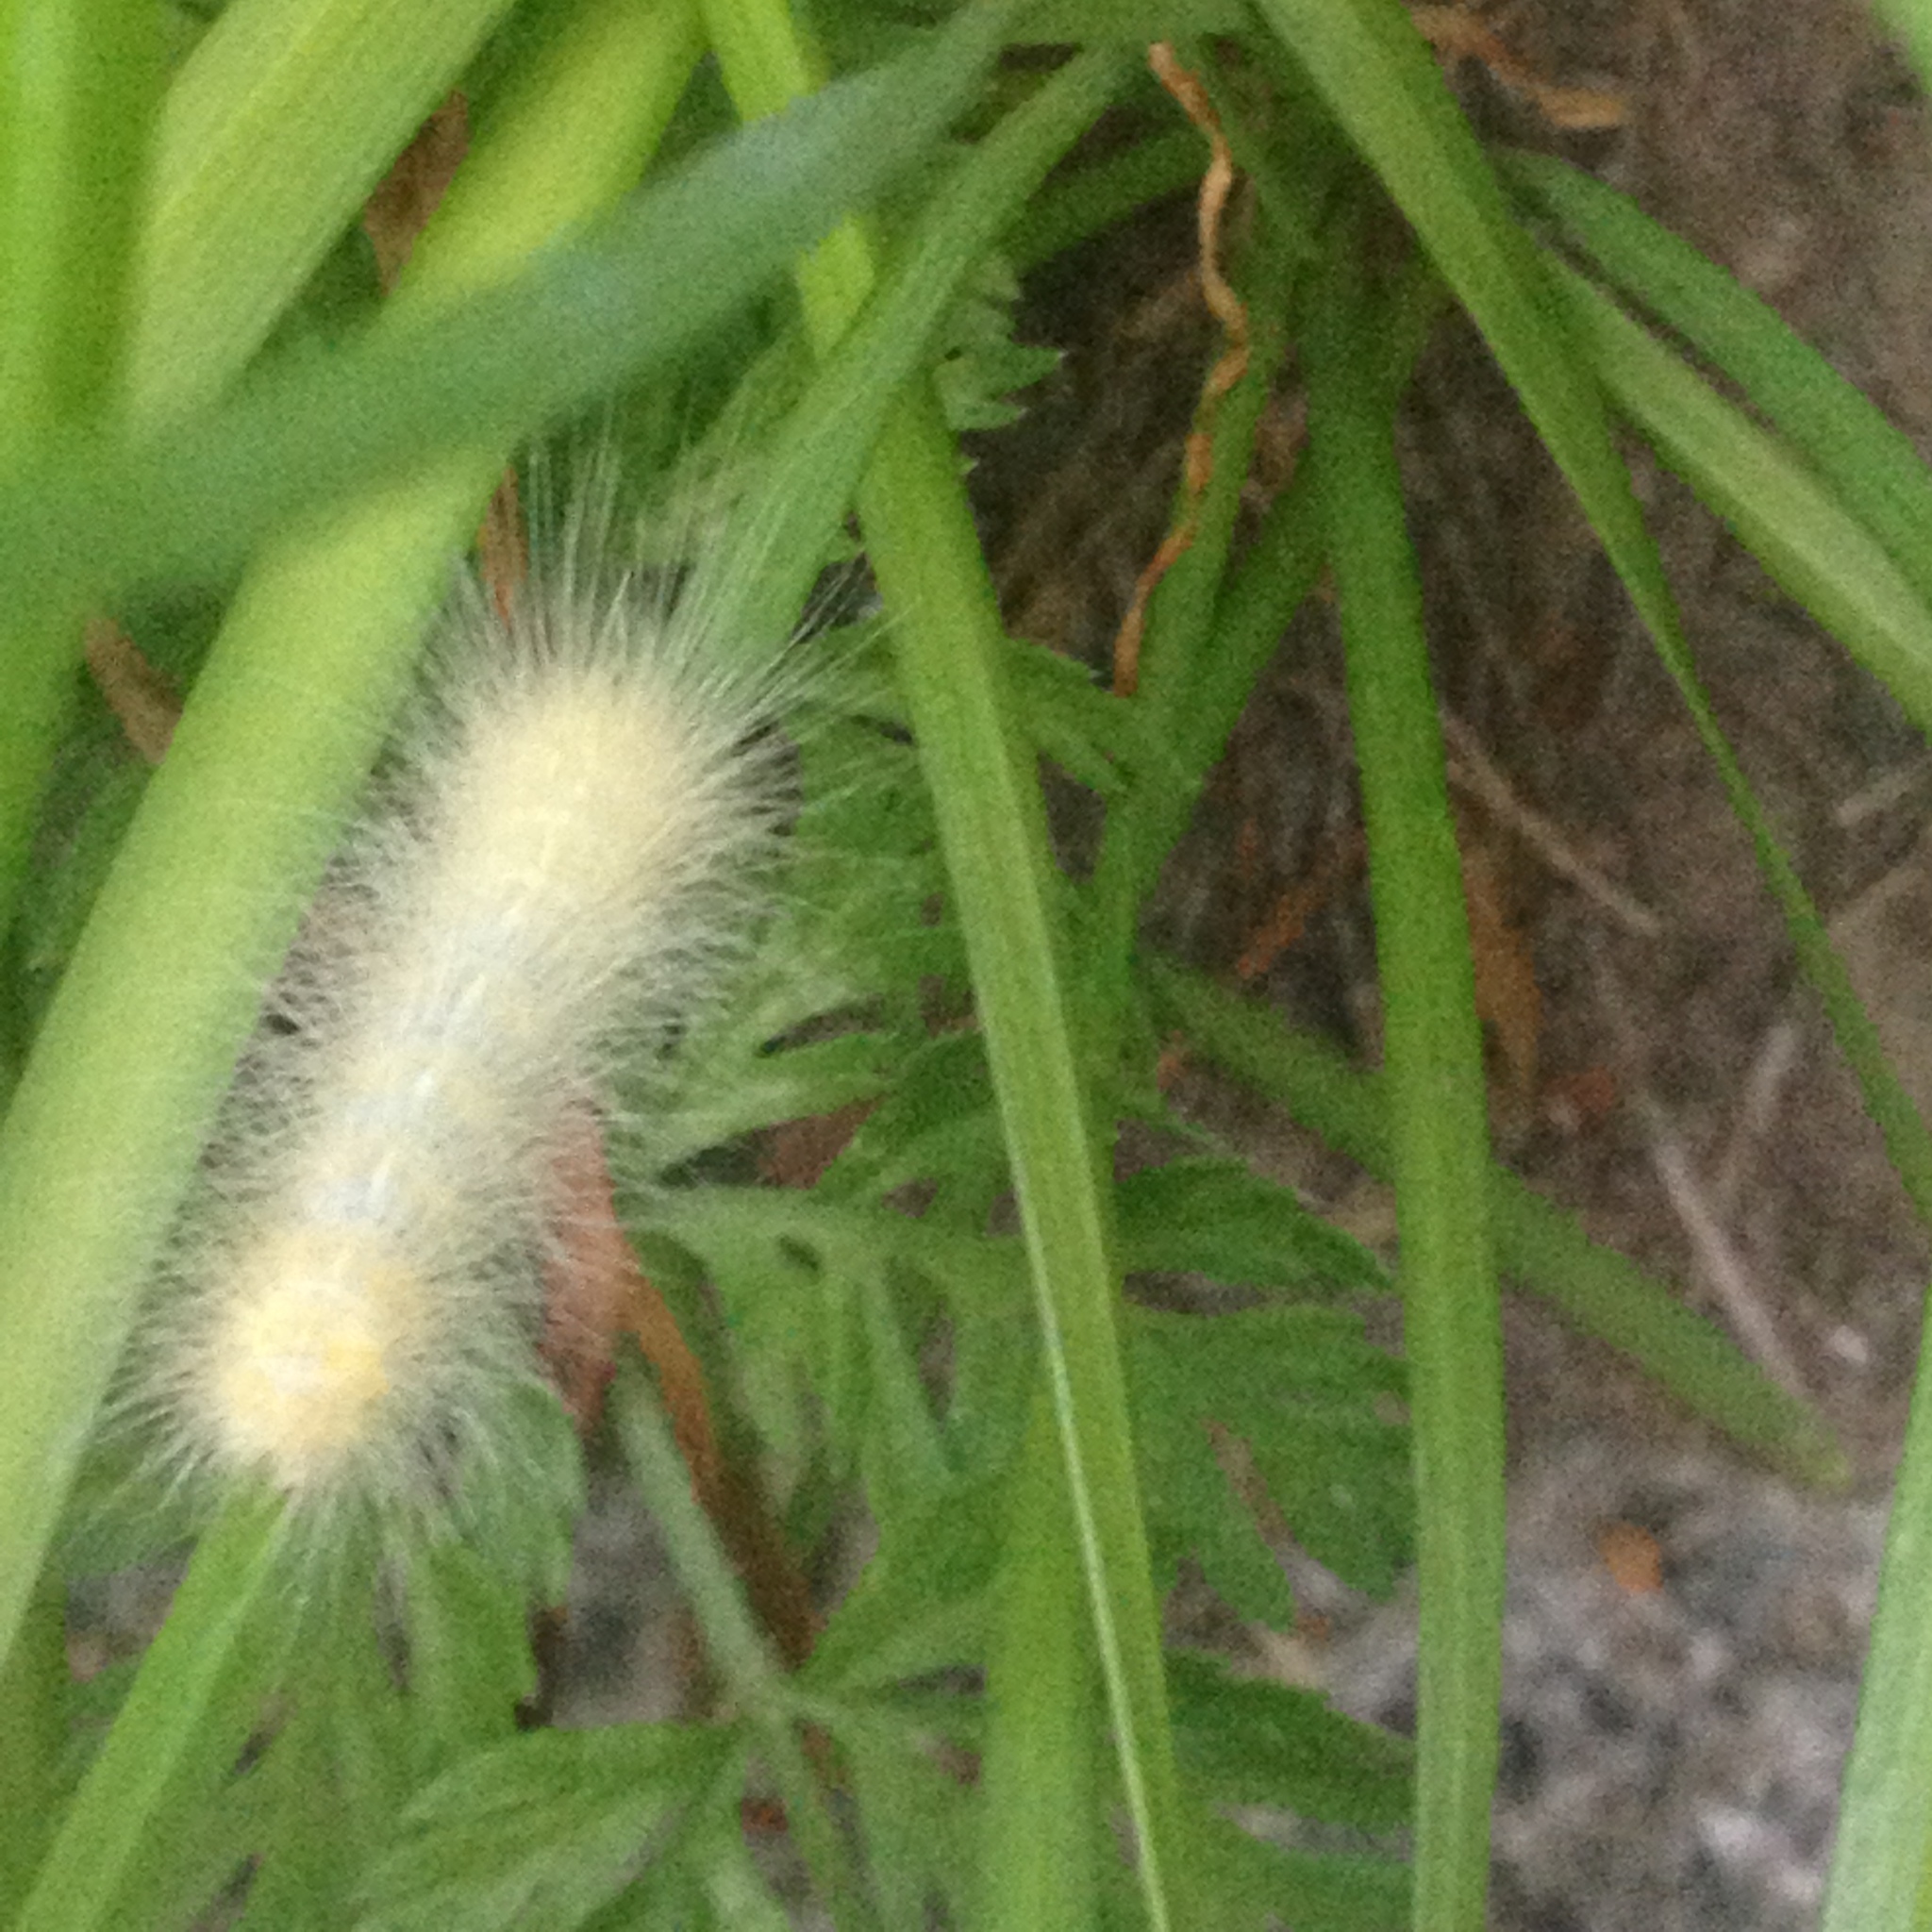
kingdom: Animalia
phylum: Arthropoda
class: Insecta
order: Lepidoptera
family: Erebidae
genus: Spilosoma
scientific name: Spilosoma virginica
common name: Virginia tiger moth
